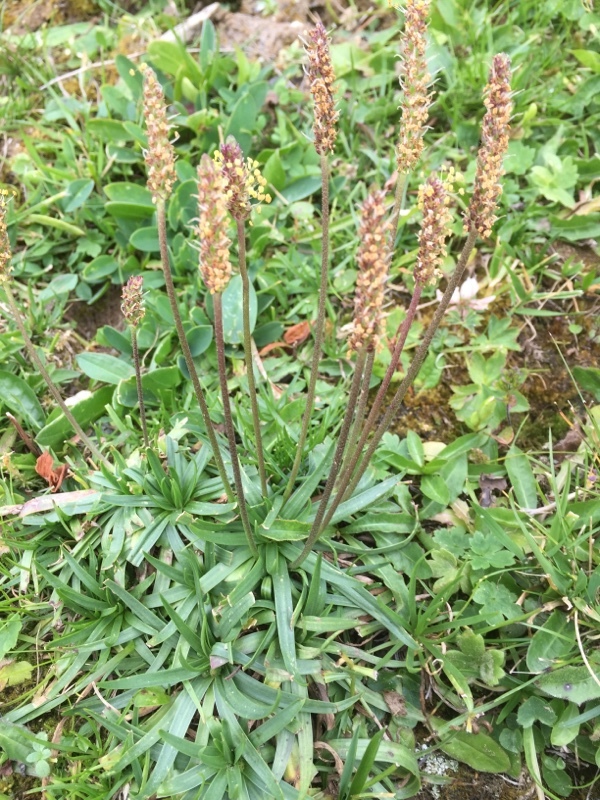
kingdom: Plantae
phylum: Tracheophyta
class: Magnoliopsida
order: Lamiales
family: Plantaginaceae
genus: Plantago
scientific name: Plantago alpina
